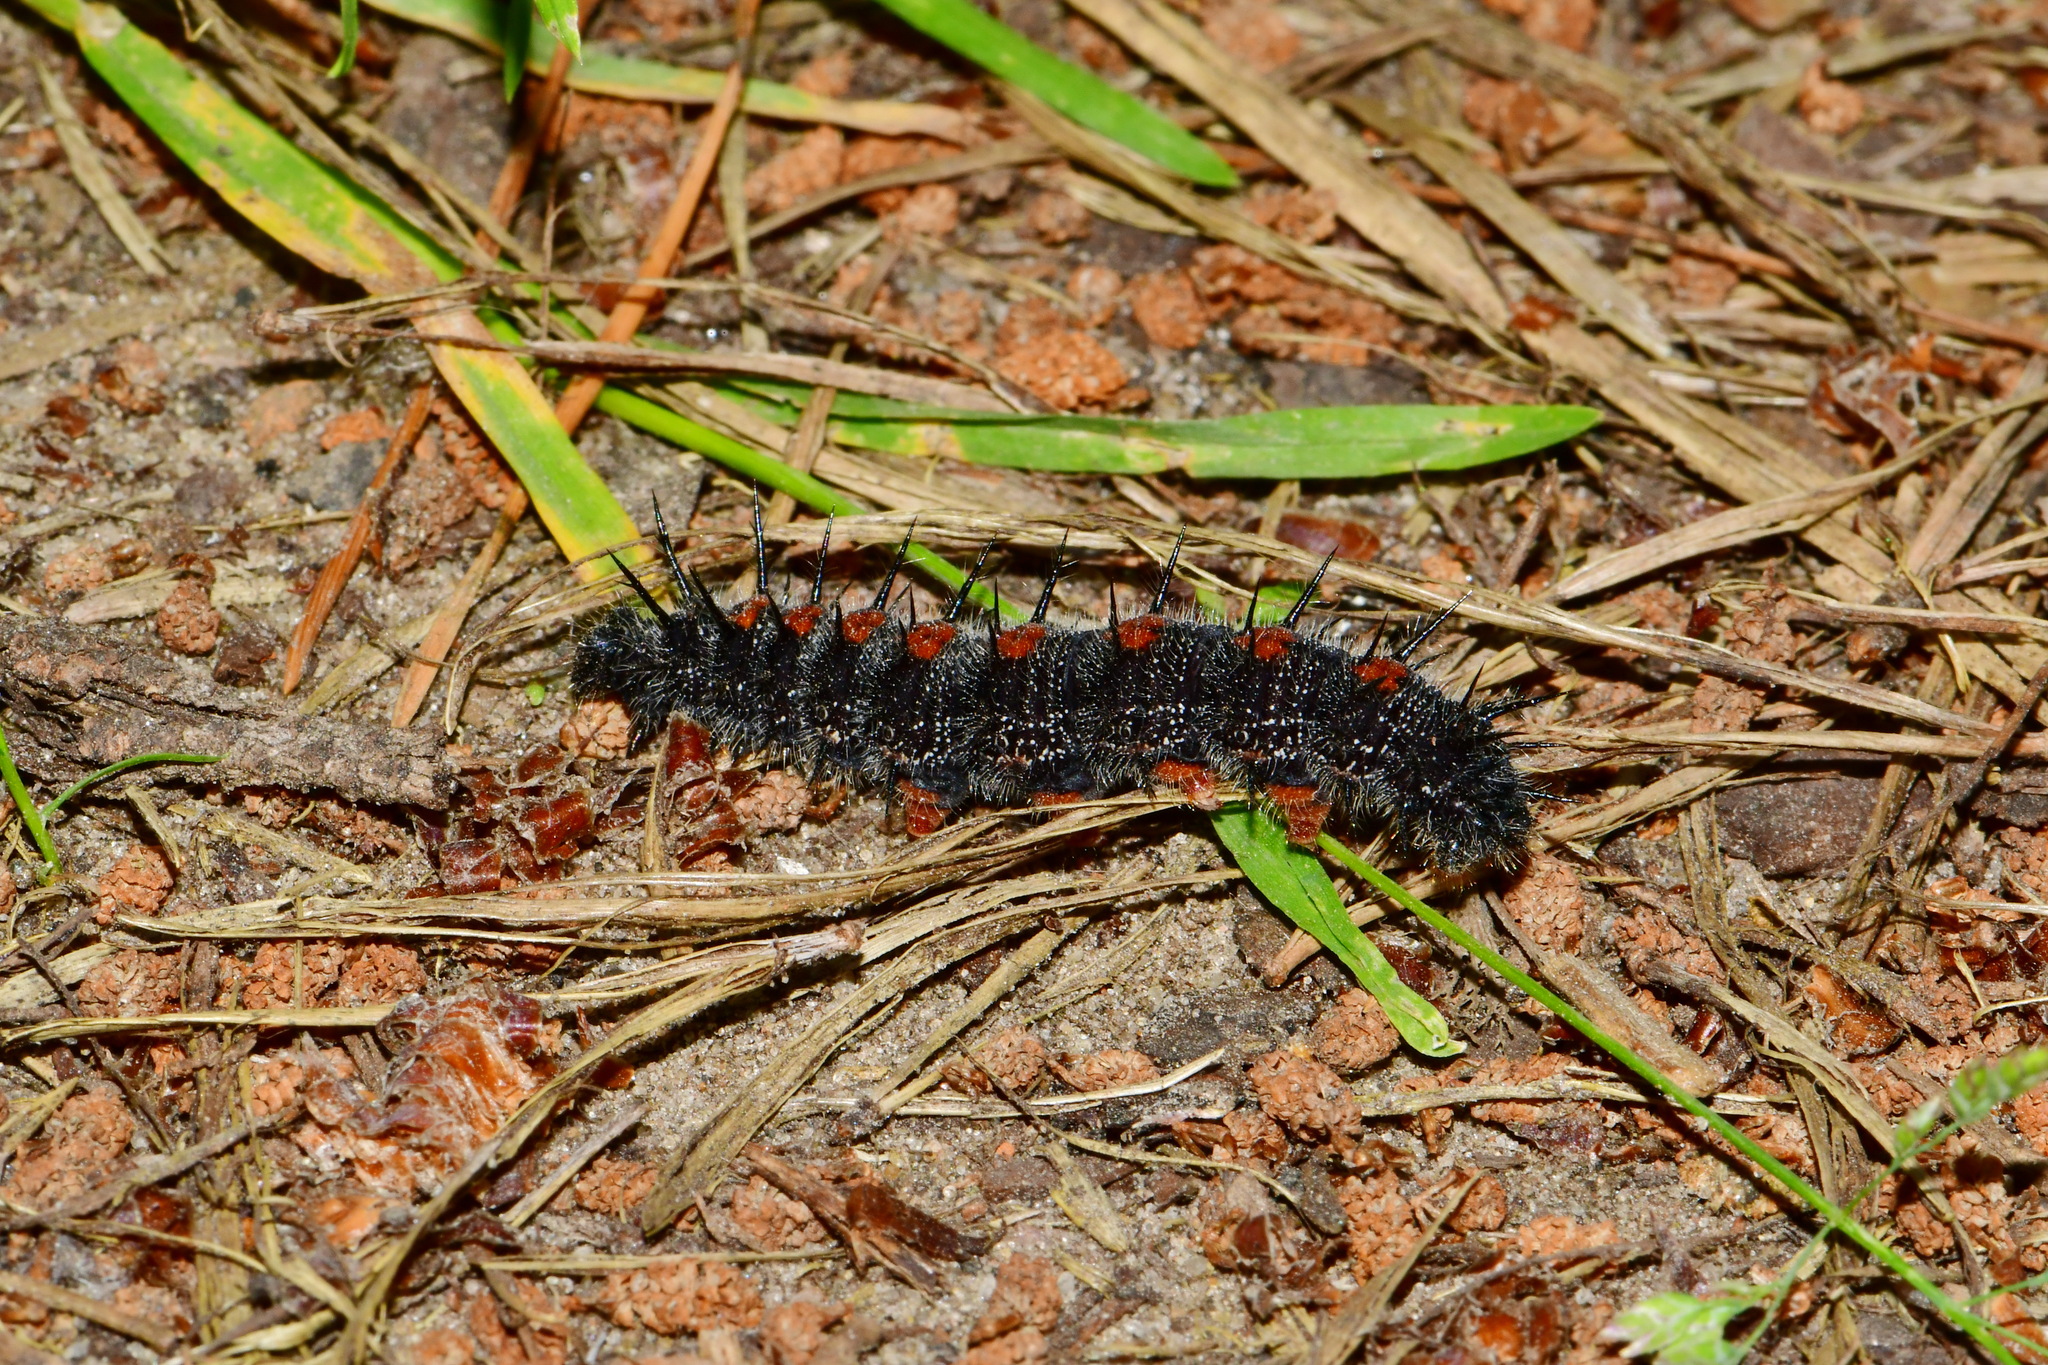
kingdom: Animalia
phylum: Arthropoda
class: Insecta
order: Lepidoptera
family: Nymphalidae
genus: Nymphalis
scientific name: Nymphalis antiopa
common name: Camberwell beauty
